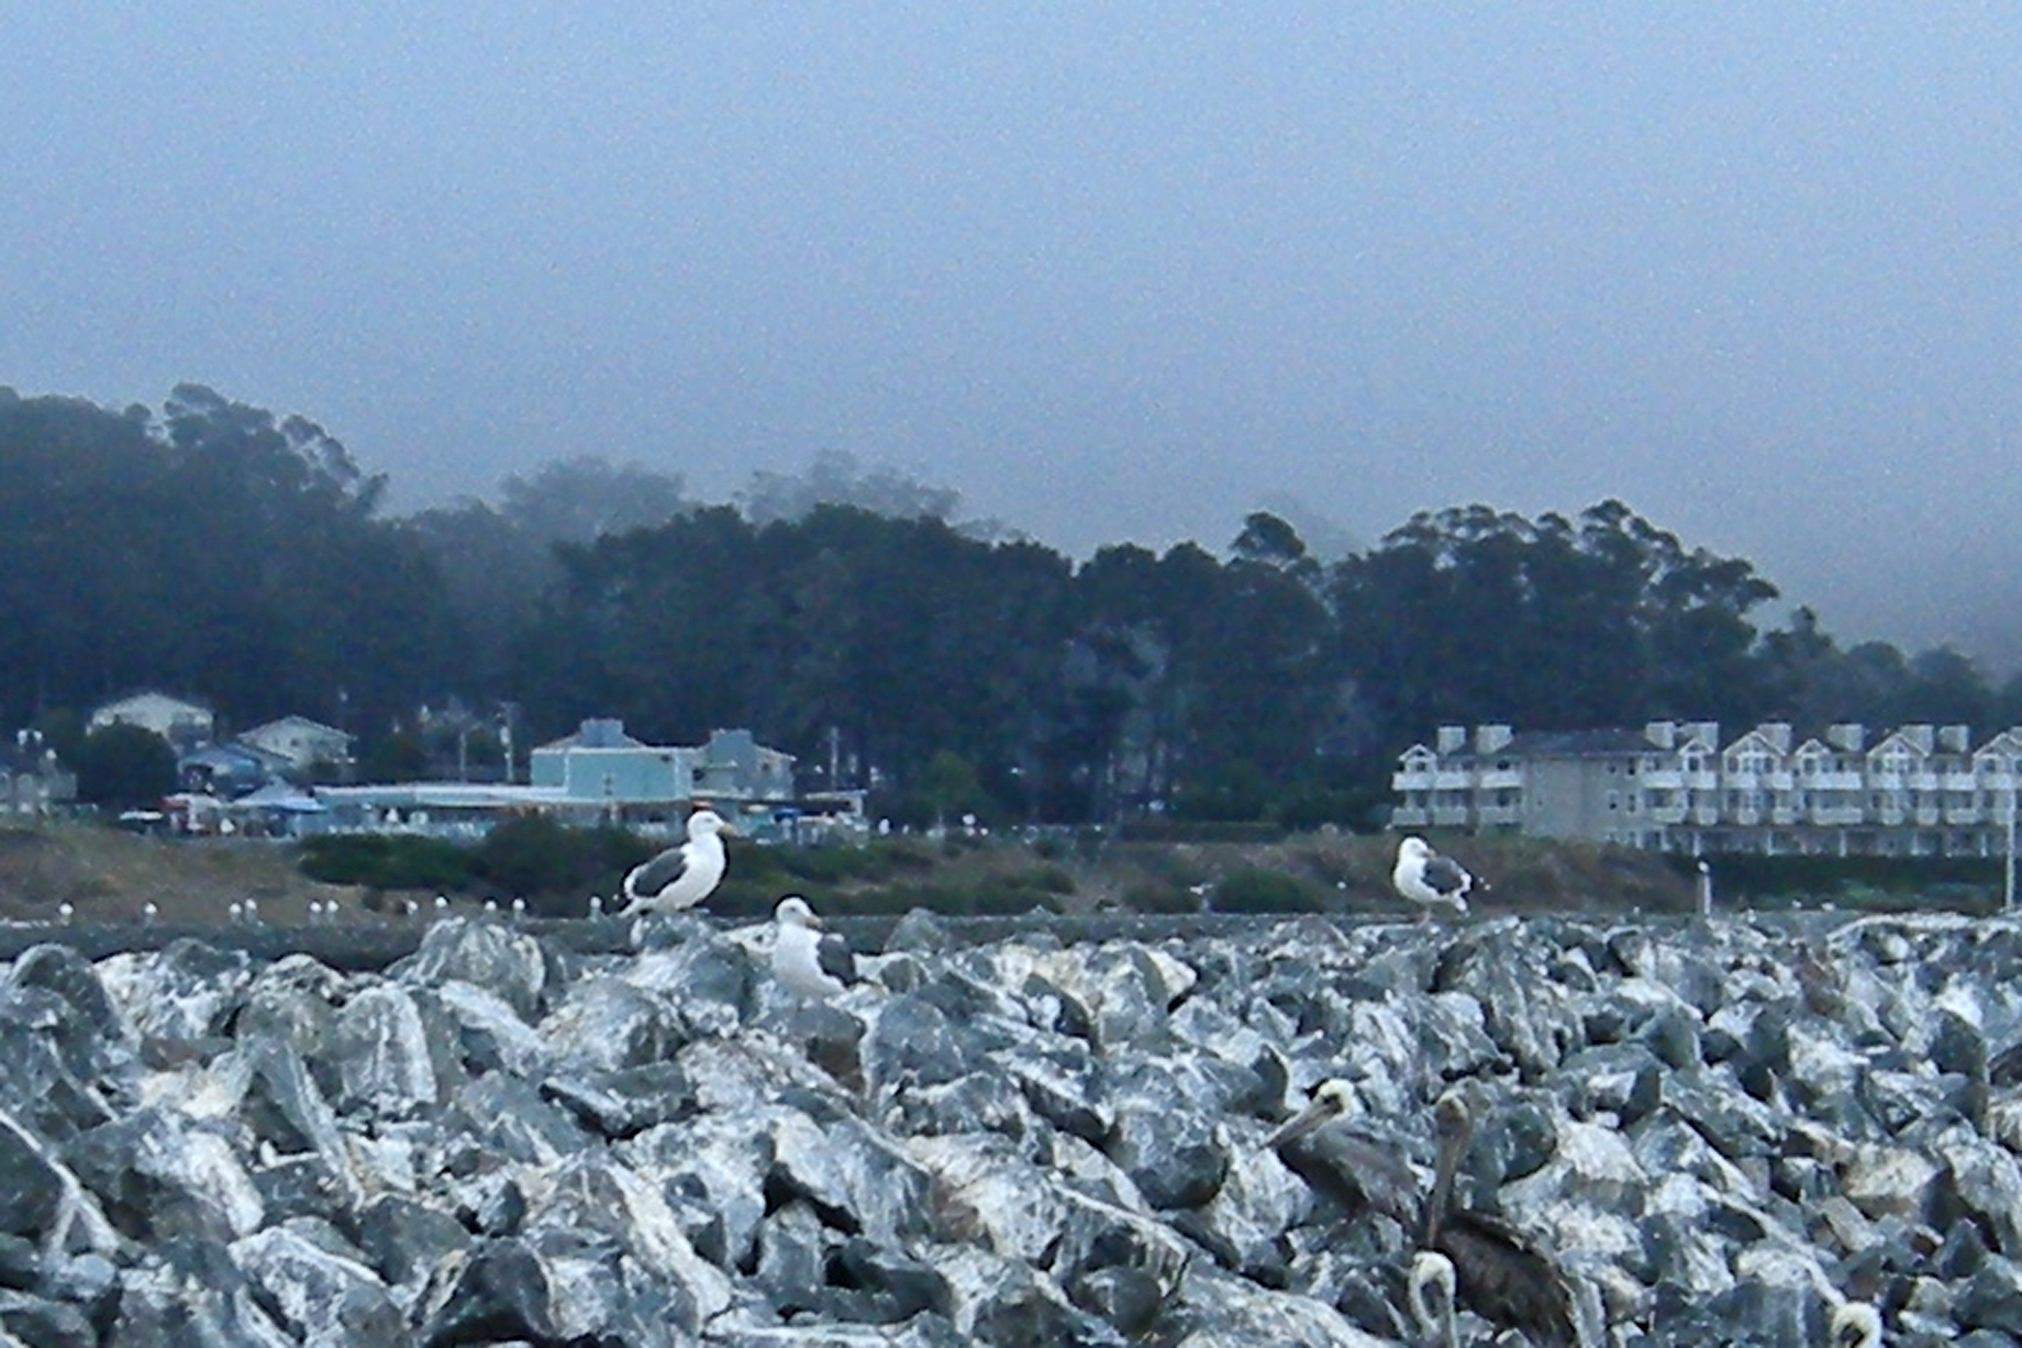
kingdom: Animalia
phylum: Chordata
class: Aves
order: Charadriiformes
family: Laridae
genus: Larus
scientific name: Larus occidentalis
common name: Western gull
